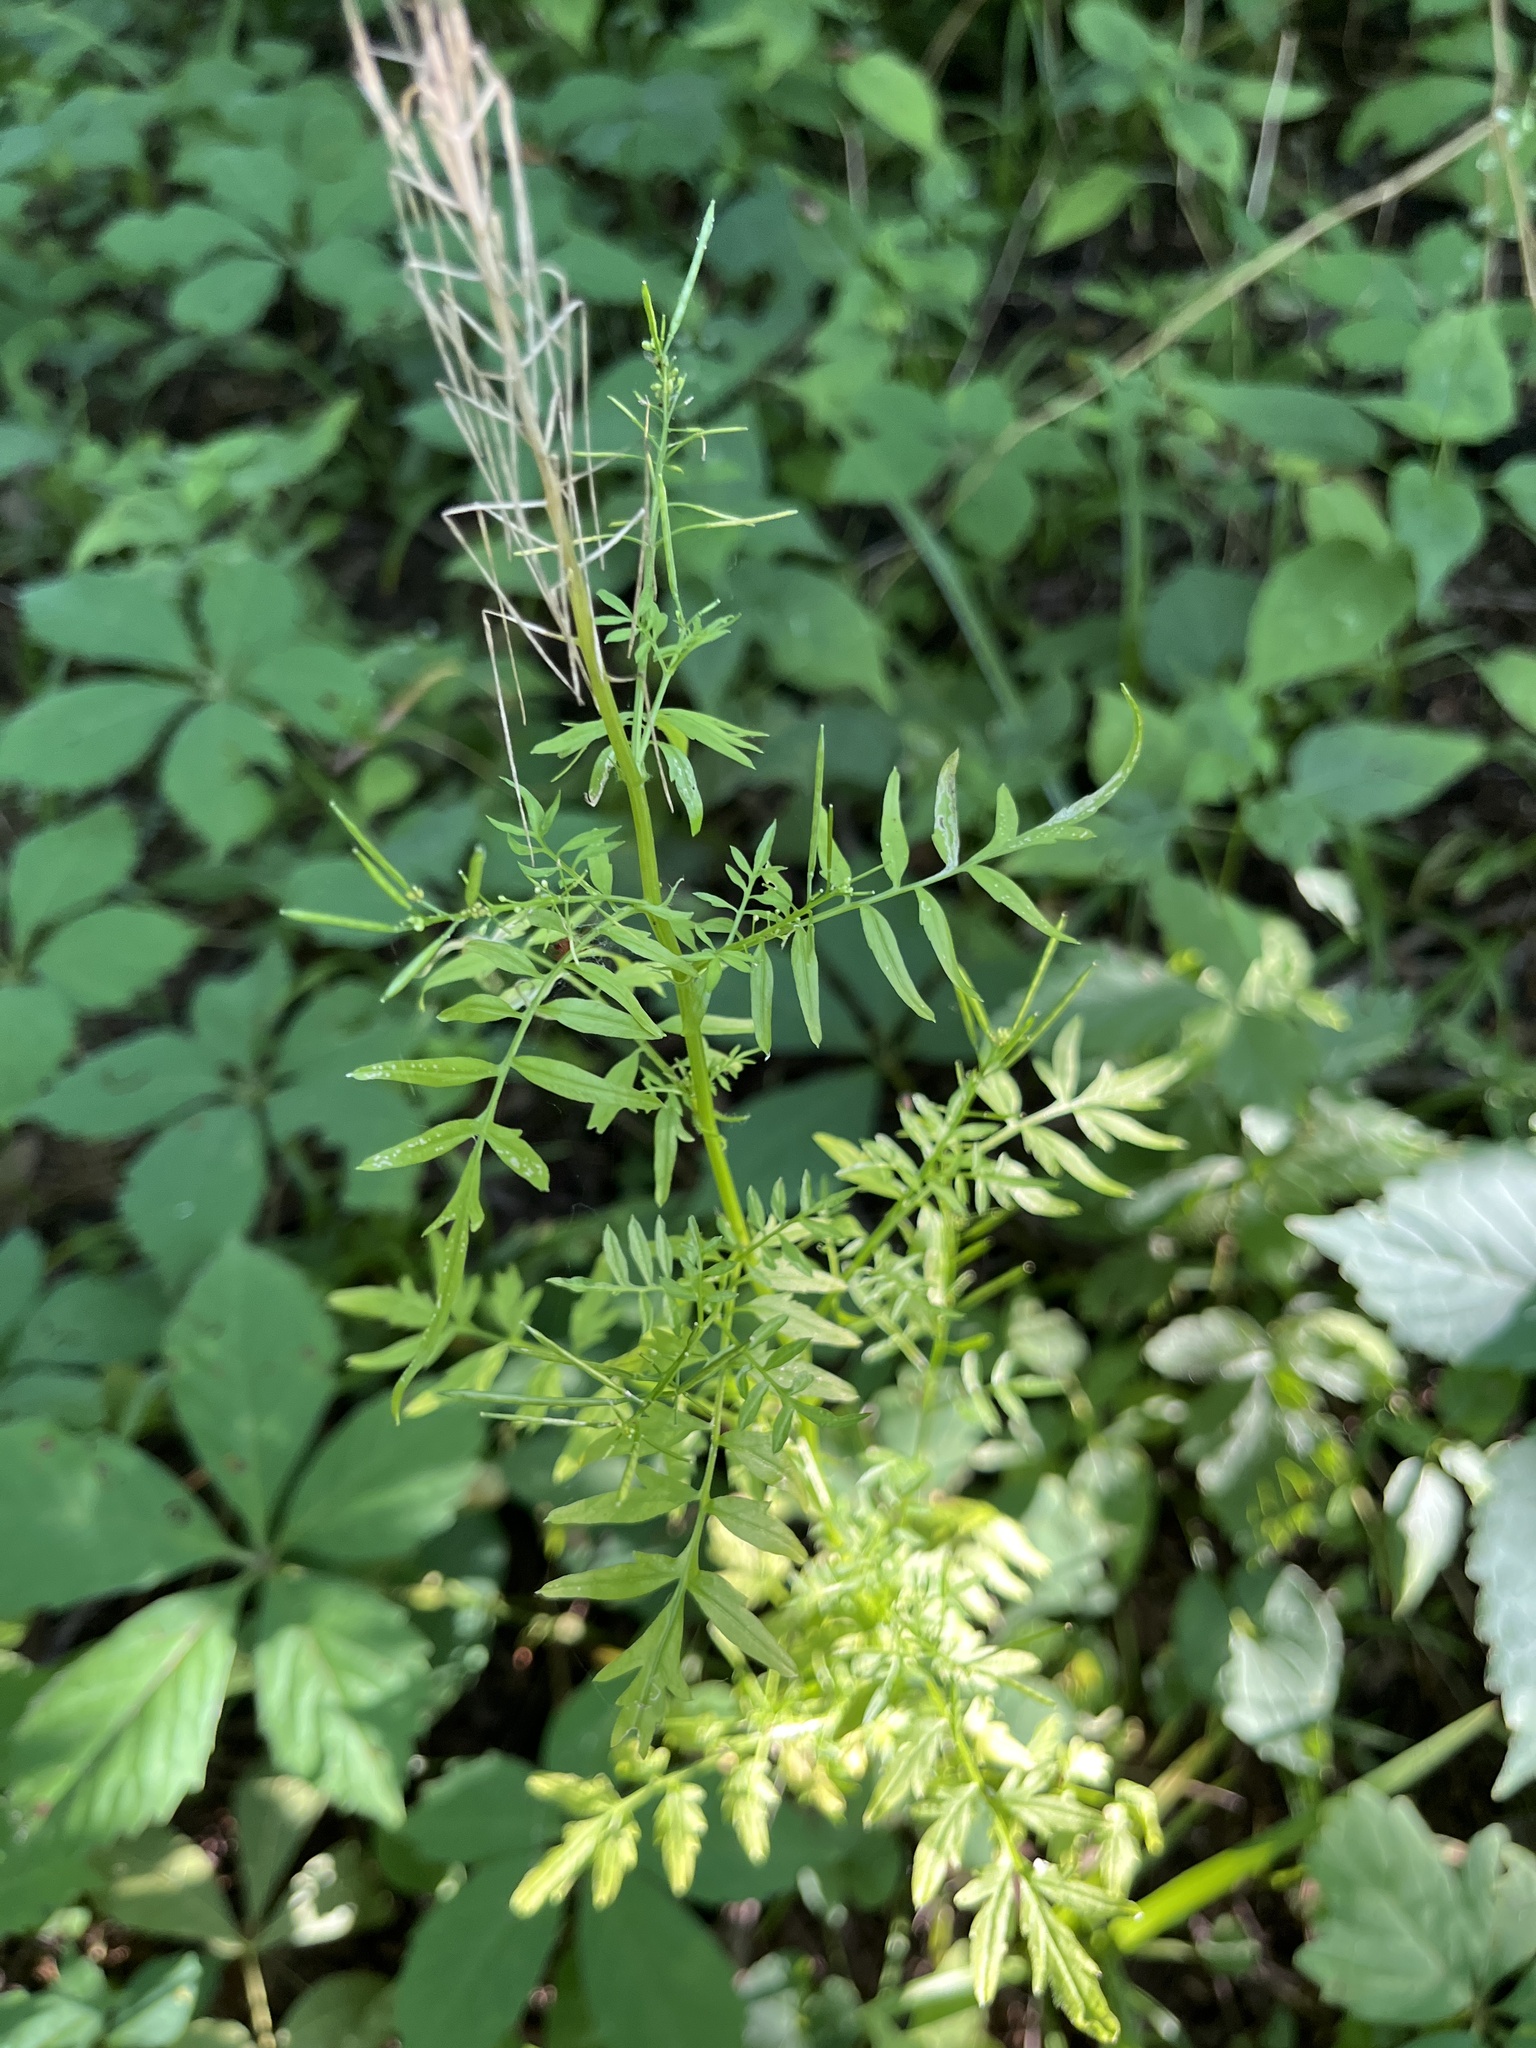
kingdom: Plantae
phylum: Tracheophyta
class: Magnoliopsida
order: Brassicales
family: Brassicaceae
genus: Cardamine
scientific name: Cardamine impatiens
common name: Narrow-leaved bitter-cress
